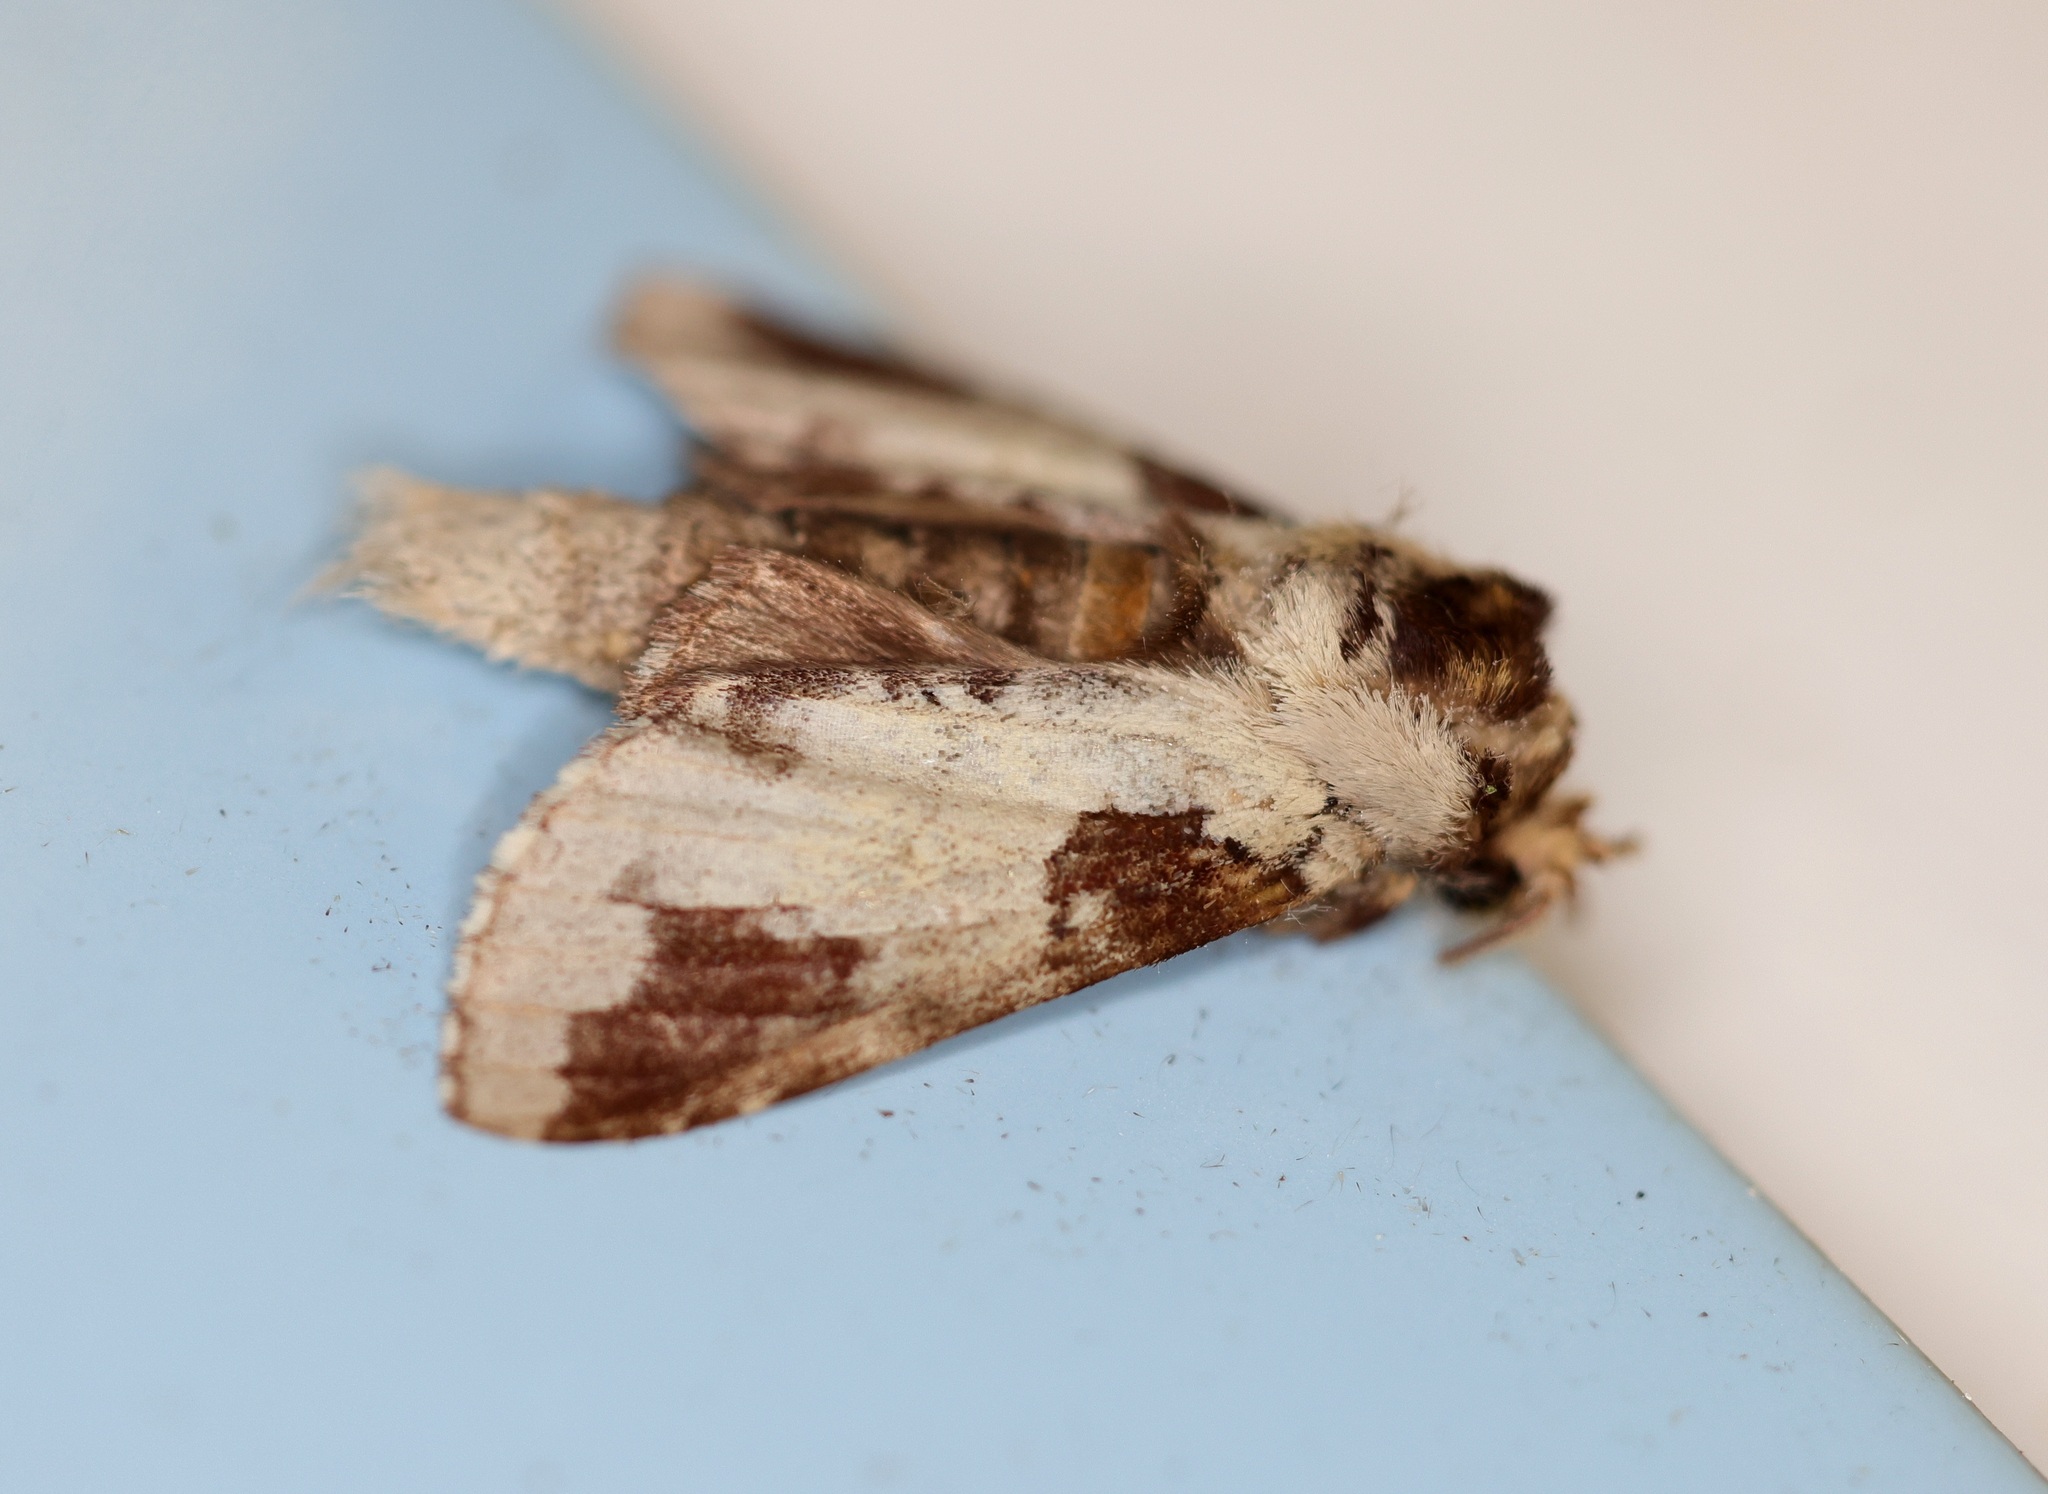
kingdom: Animalia
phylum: Arthropoda
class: Insecta
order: Lepidoptera
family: Notodontidae
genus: Neodrymonia
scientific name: Neodrymonia taipoensis
